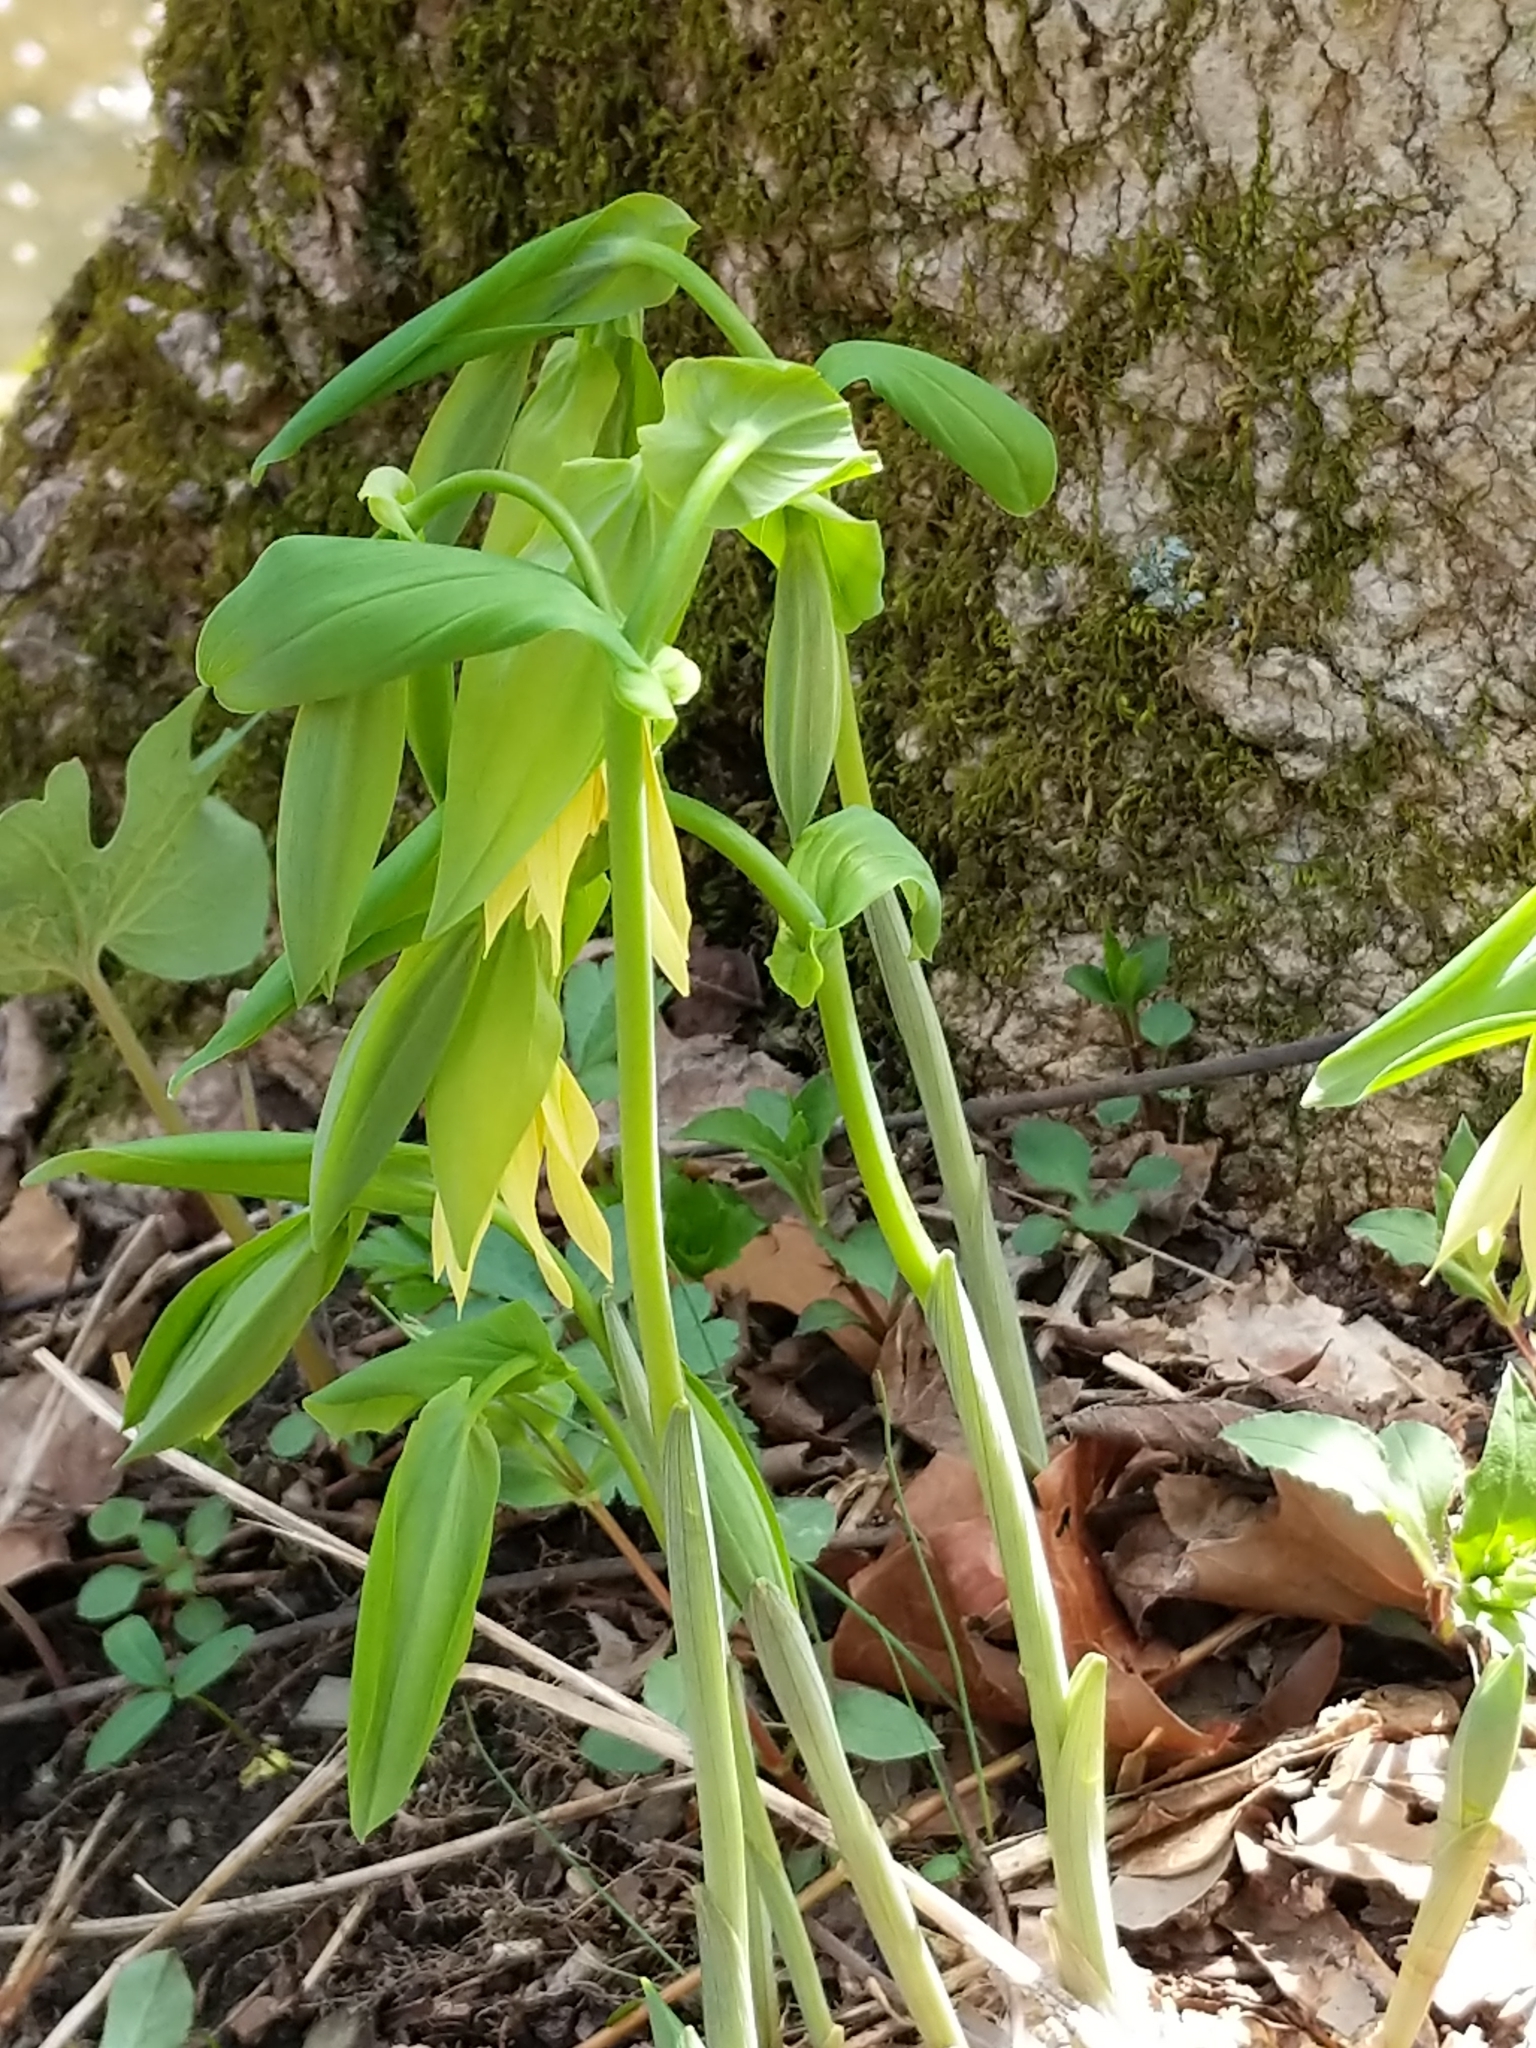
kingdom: Plantae
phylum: Tracheophyta
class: Liliopsida
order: Liliales
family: Colchicaceae
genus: Uvularia
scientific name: Uvularia grandiflora
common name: Bellwort
